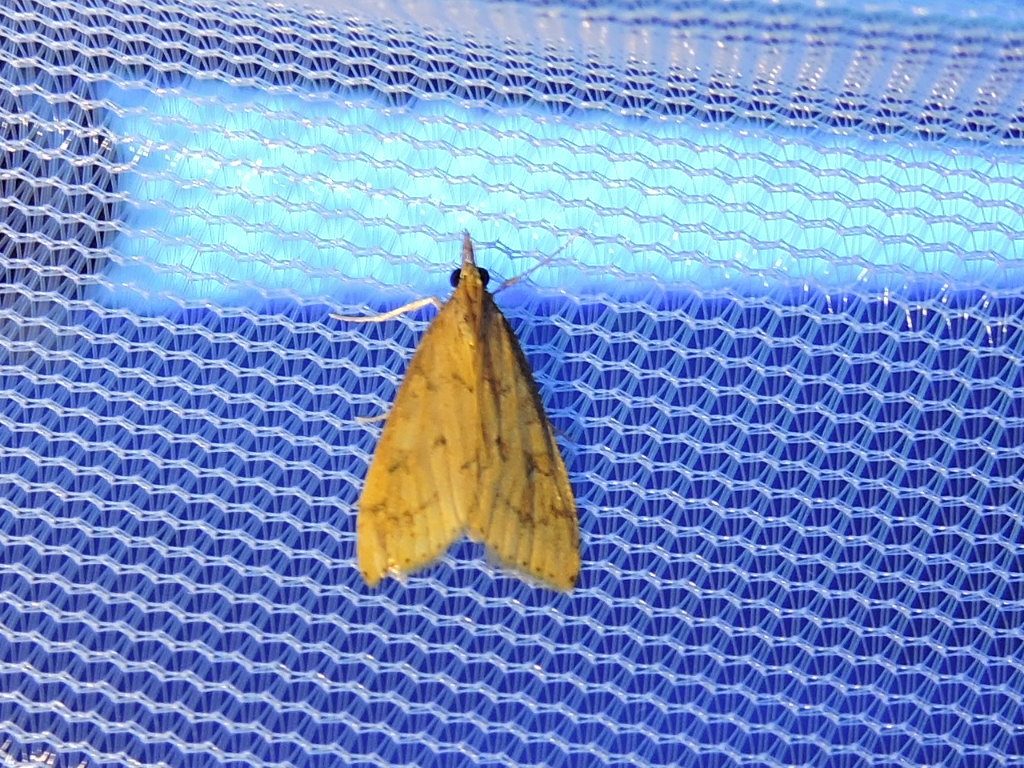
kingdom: Animalia
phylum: Arthropoda
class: Insecta
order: Lepidoptera
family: Crambidae
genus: Udea
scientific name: Udea rubigalis
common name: Celery leaftier moth
